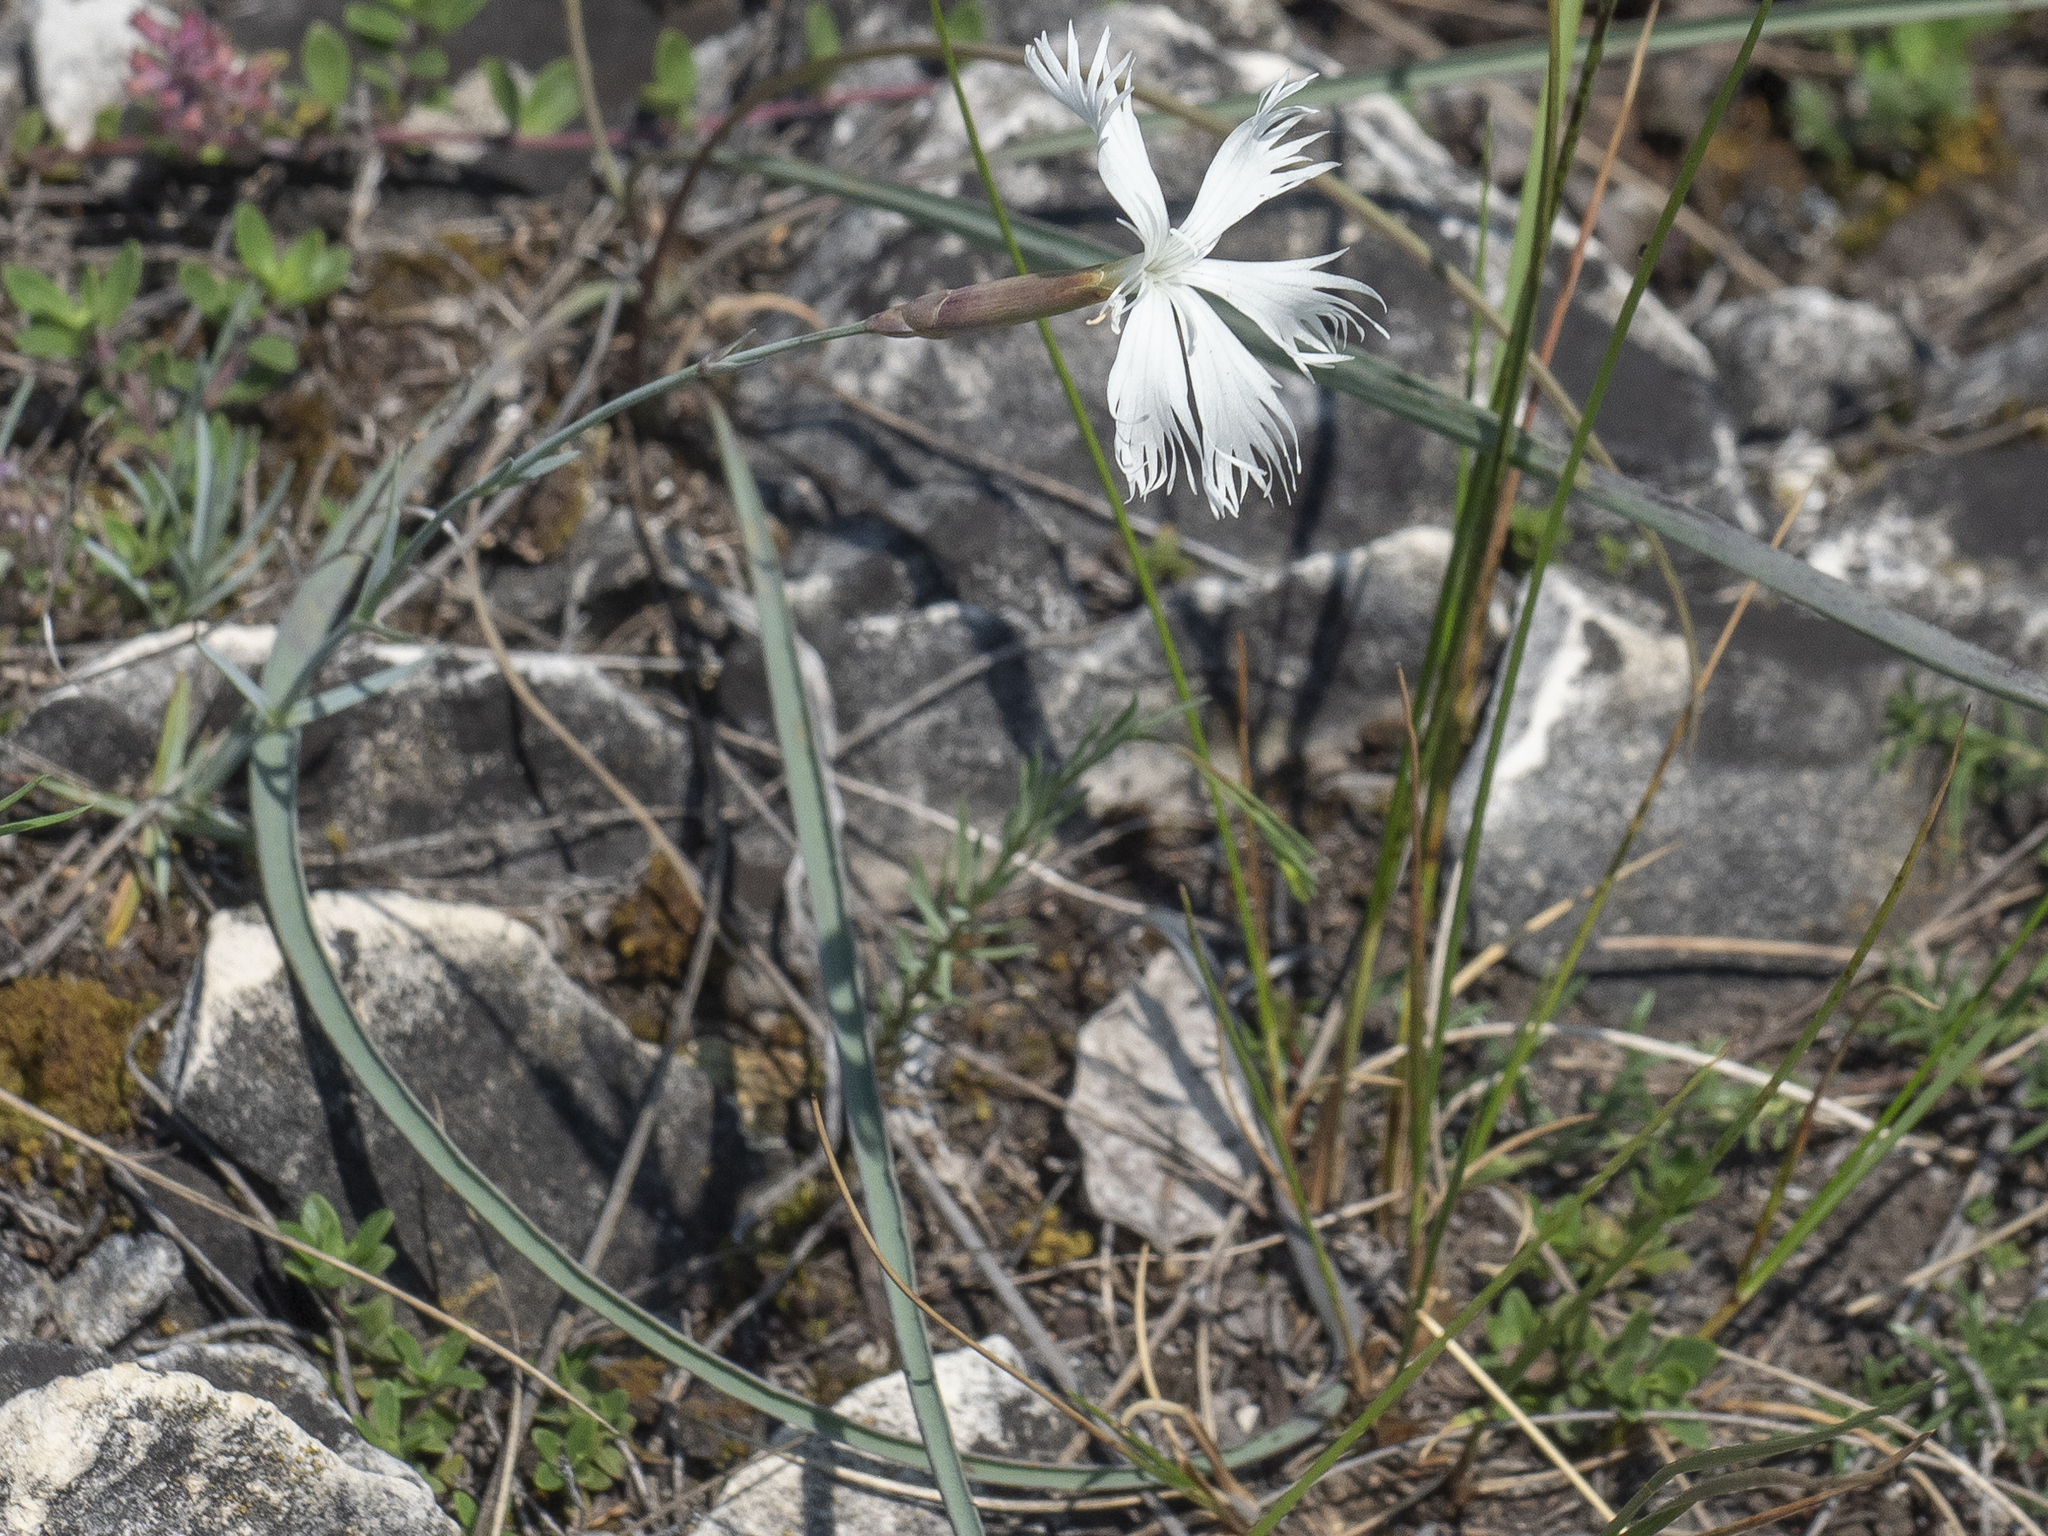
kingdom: Plantae
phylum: Tracheophyta
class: Magnoliopsida
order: Caryophyllales
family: Caryophyllaceae
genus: Dianthus
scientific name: Dianthus plumarius
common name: Pink
